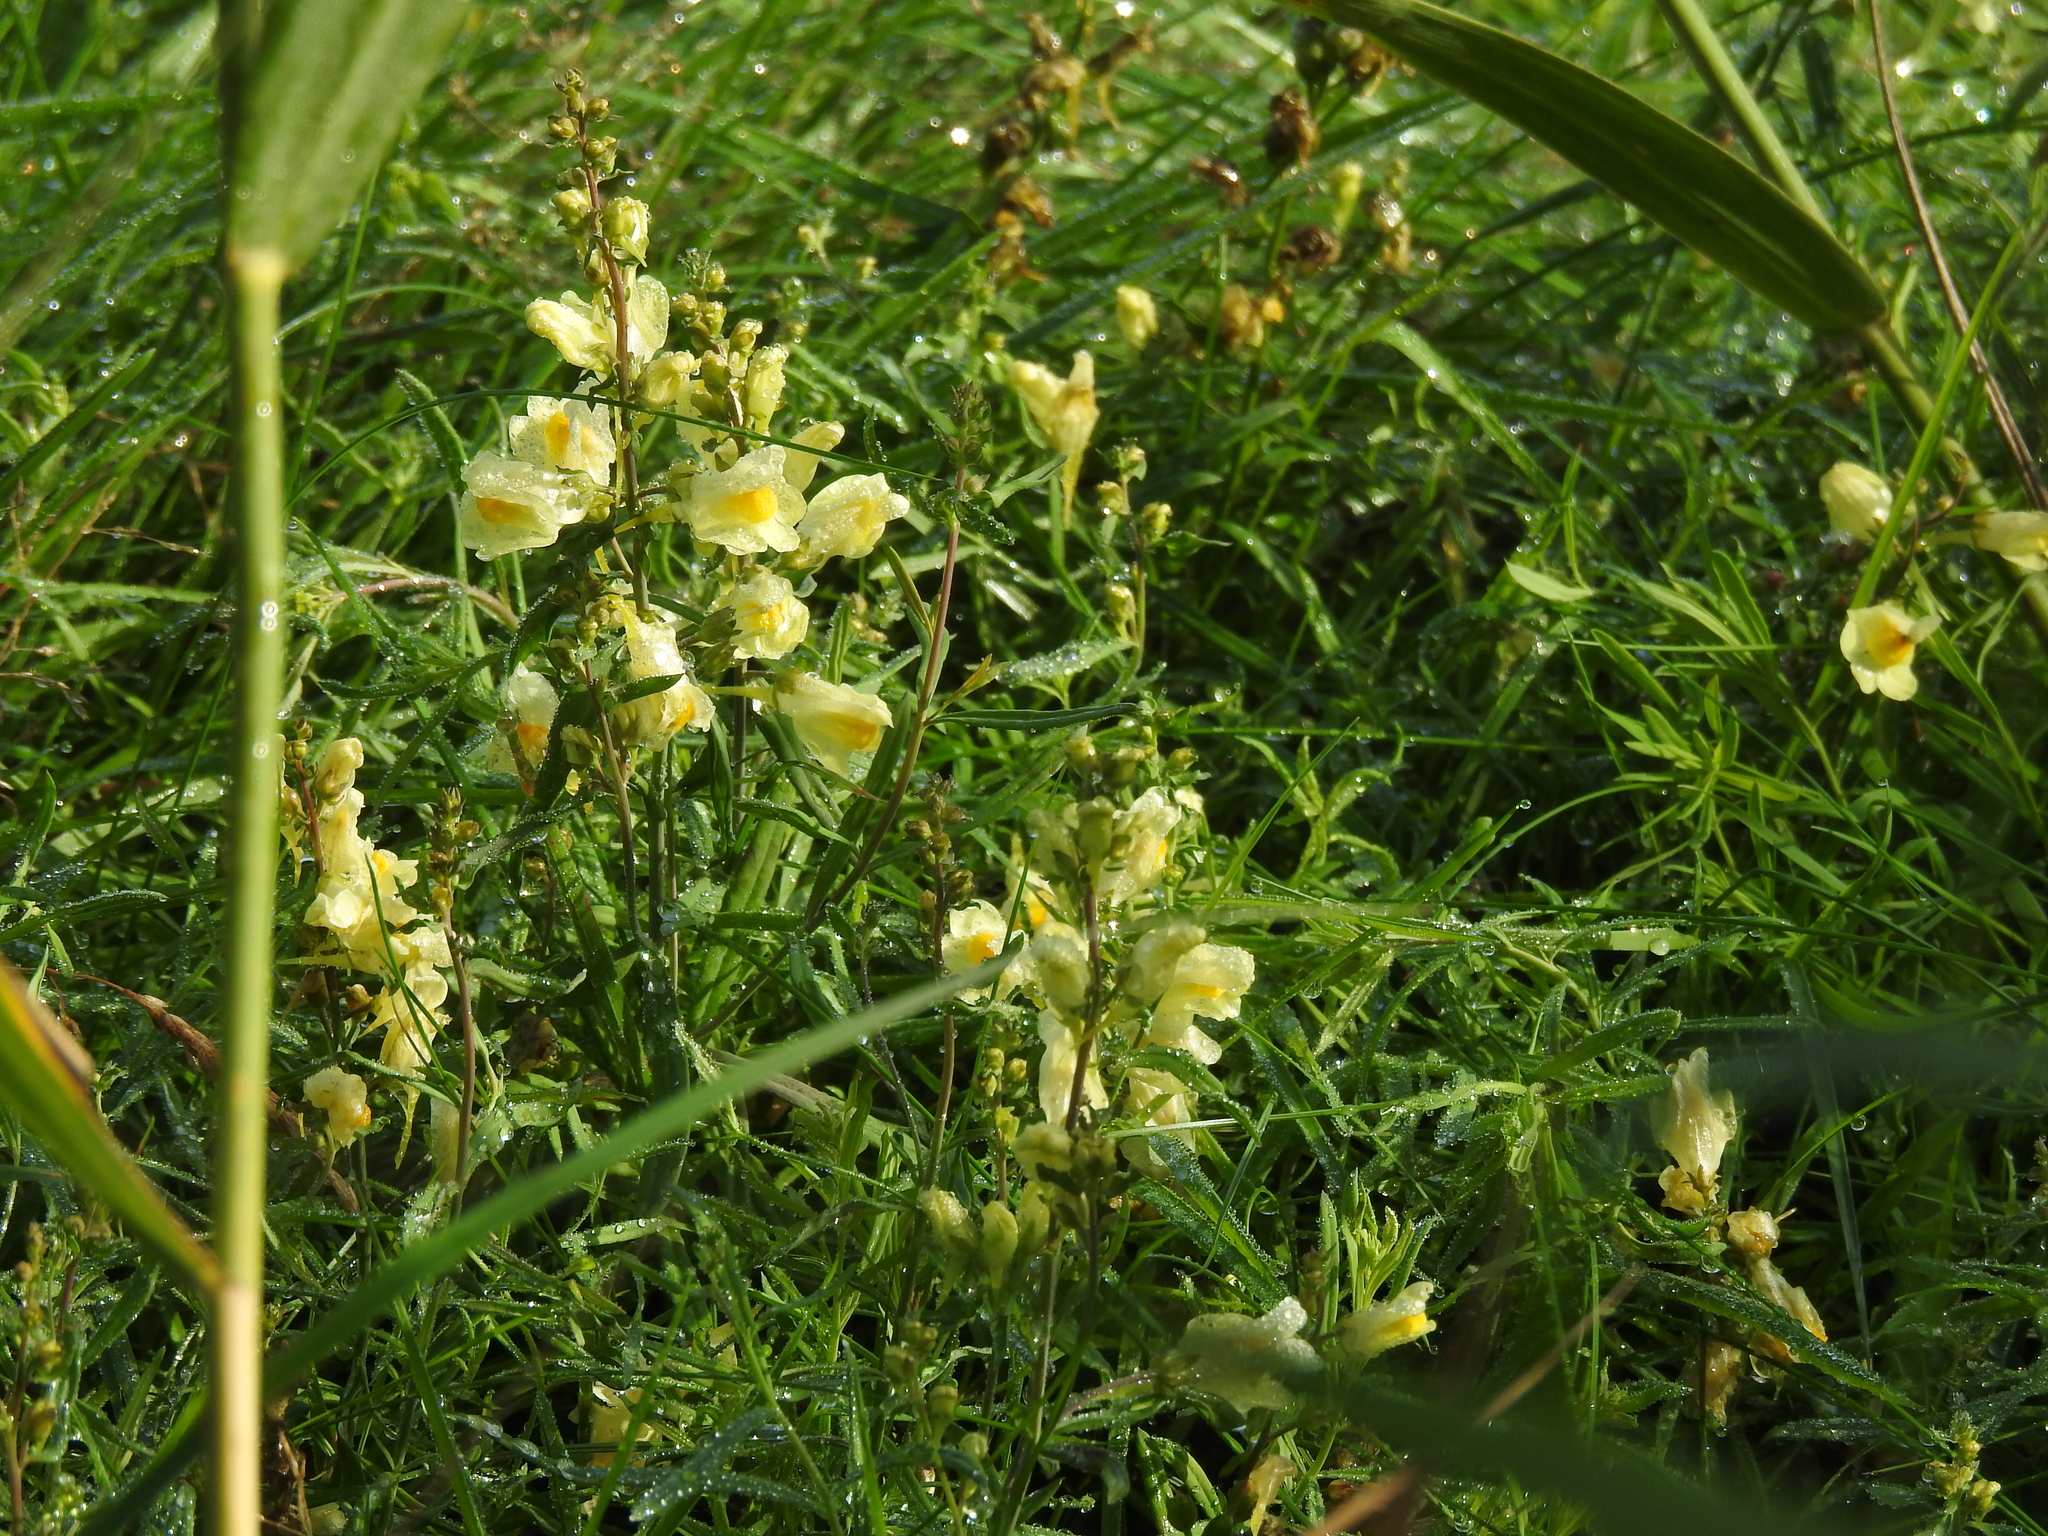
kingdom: Plantae
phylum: Tracheophyta
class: Magnoliopsida
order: Lamiales
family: Plantaginaceae
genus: Linaria
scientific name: Linaria vulgaris
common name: Butter and eggs
